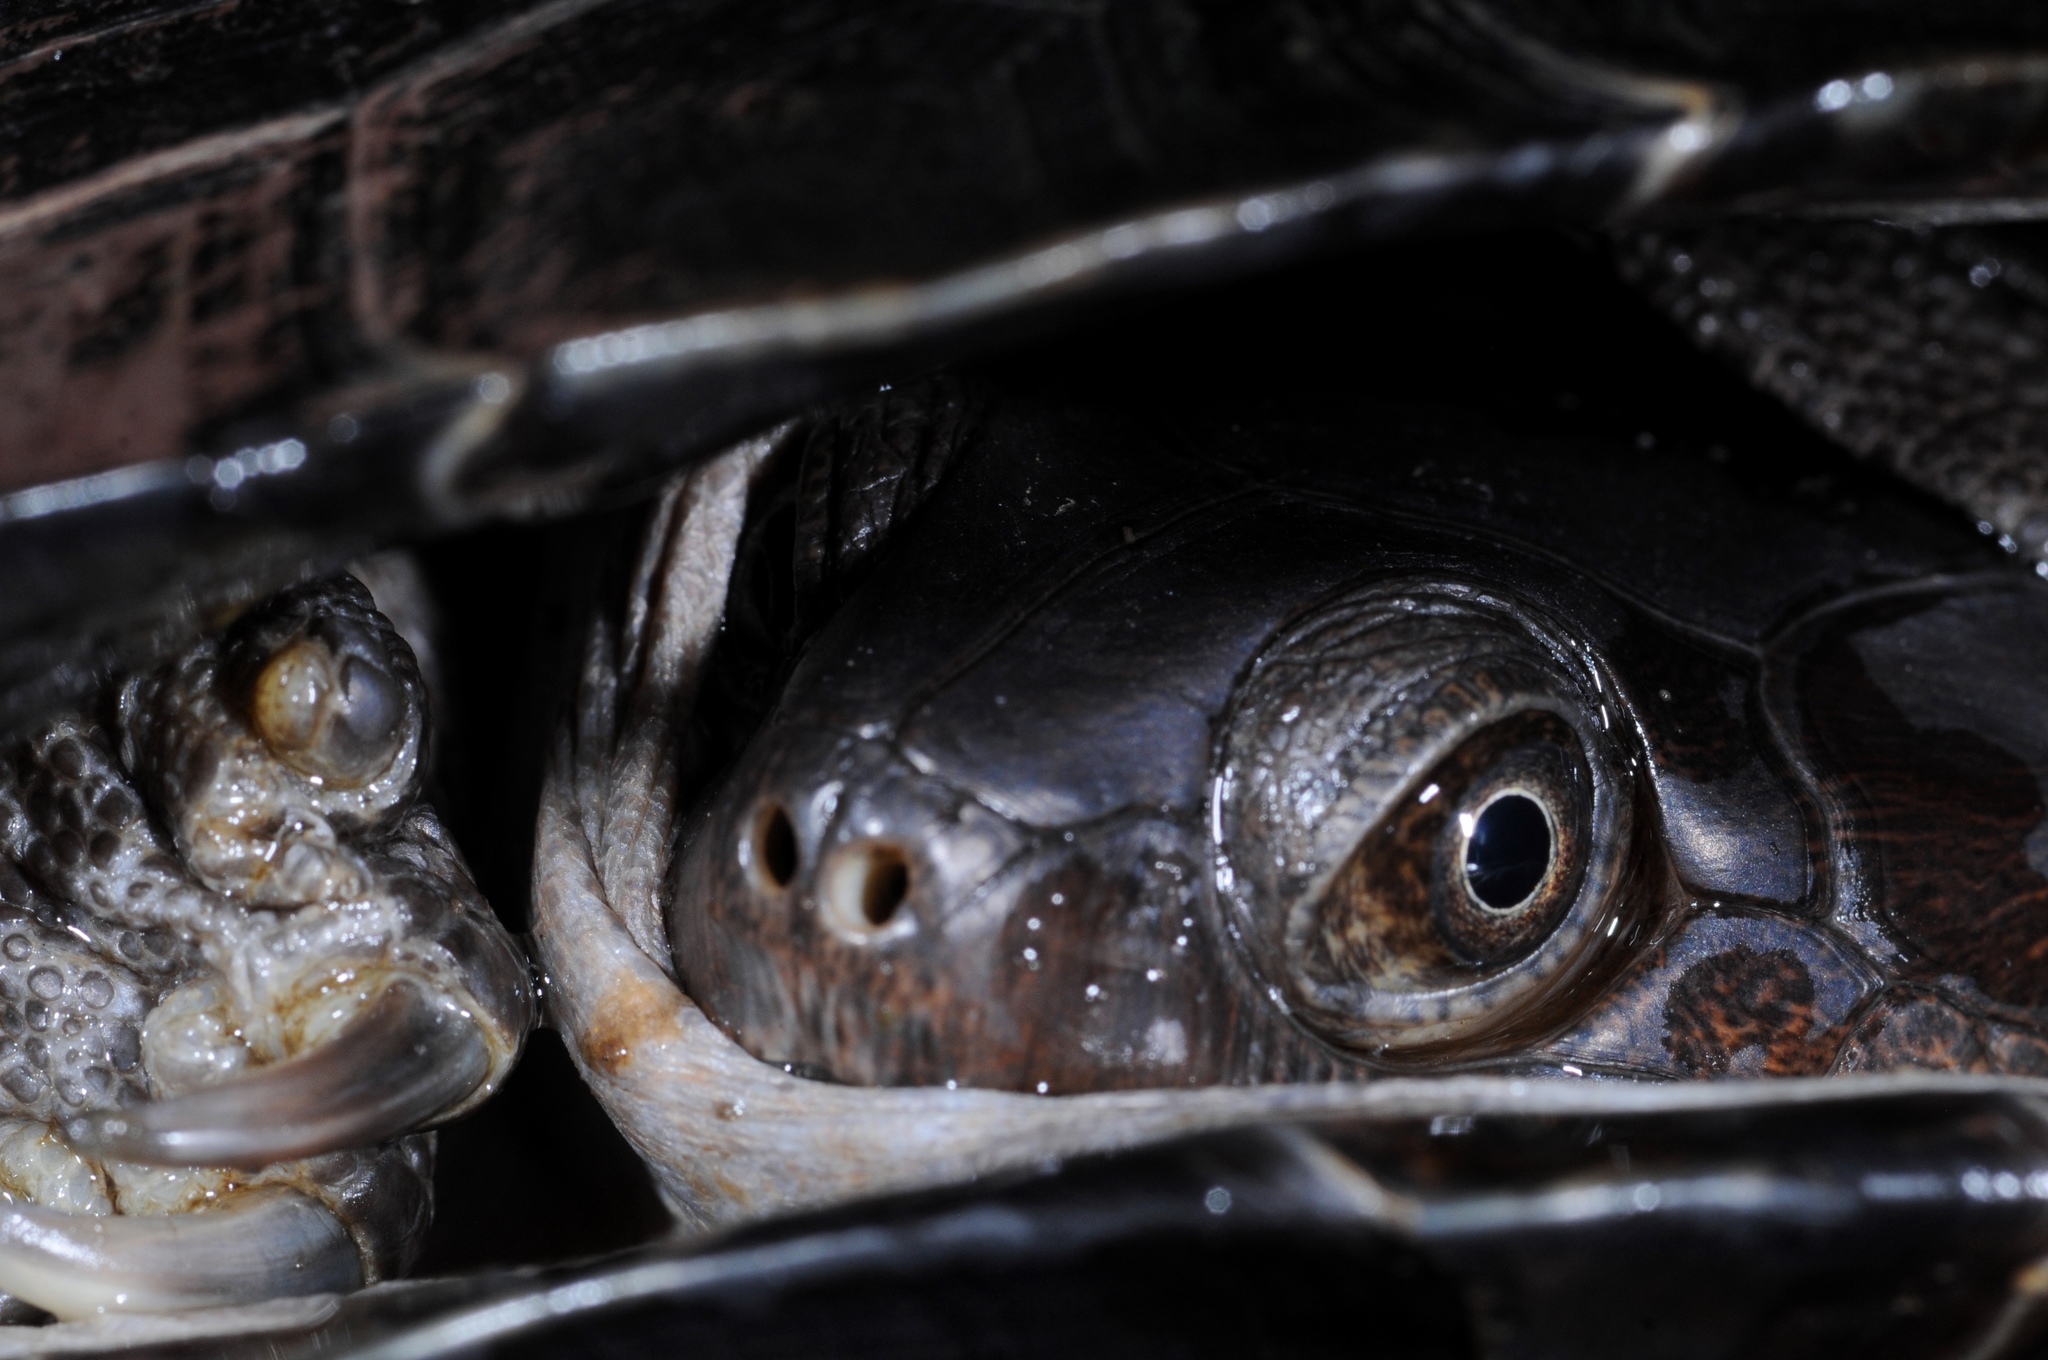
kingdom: Animalia
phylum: Chordata
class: Testudines
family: Pelomedusidae
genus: Pelusios
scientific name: Pelusios sinuatus
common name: Serrated hinged terrapin
